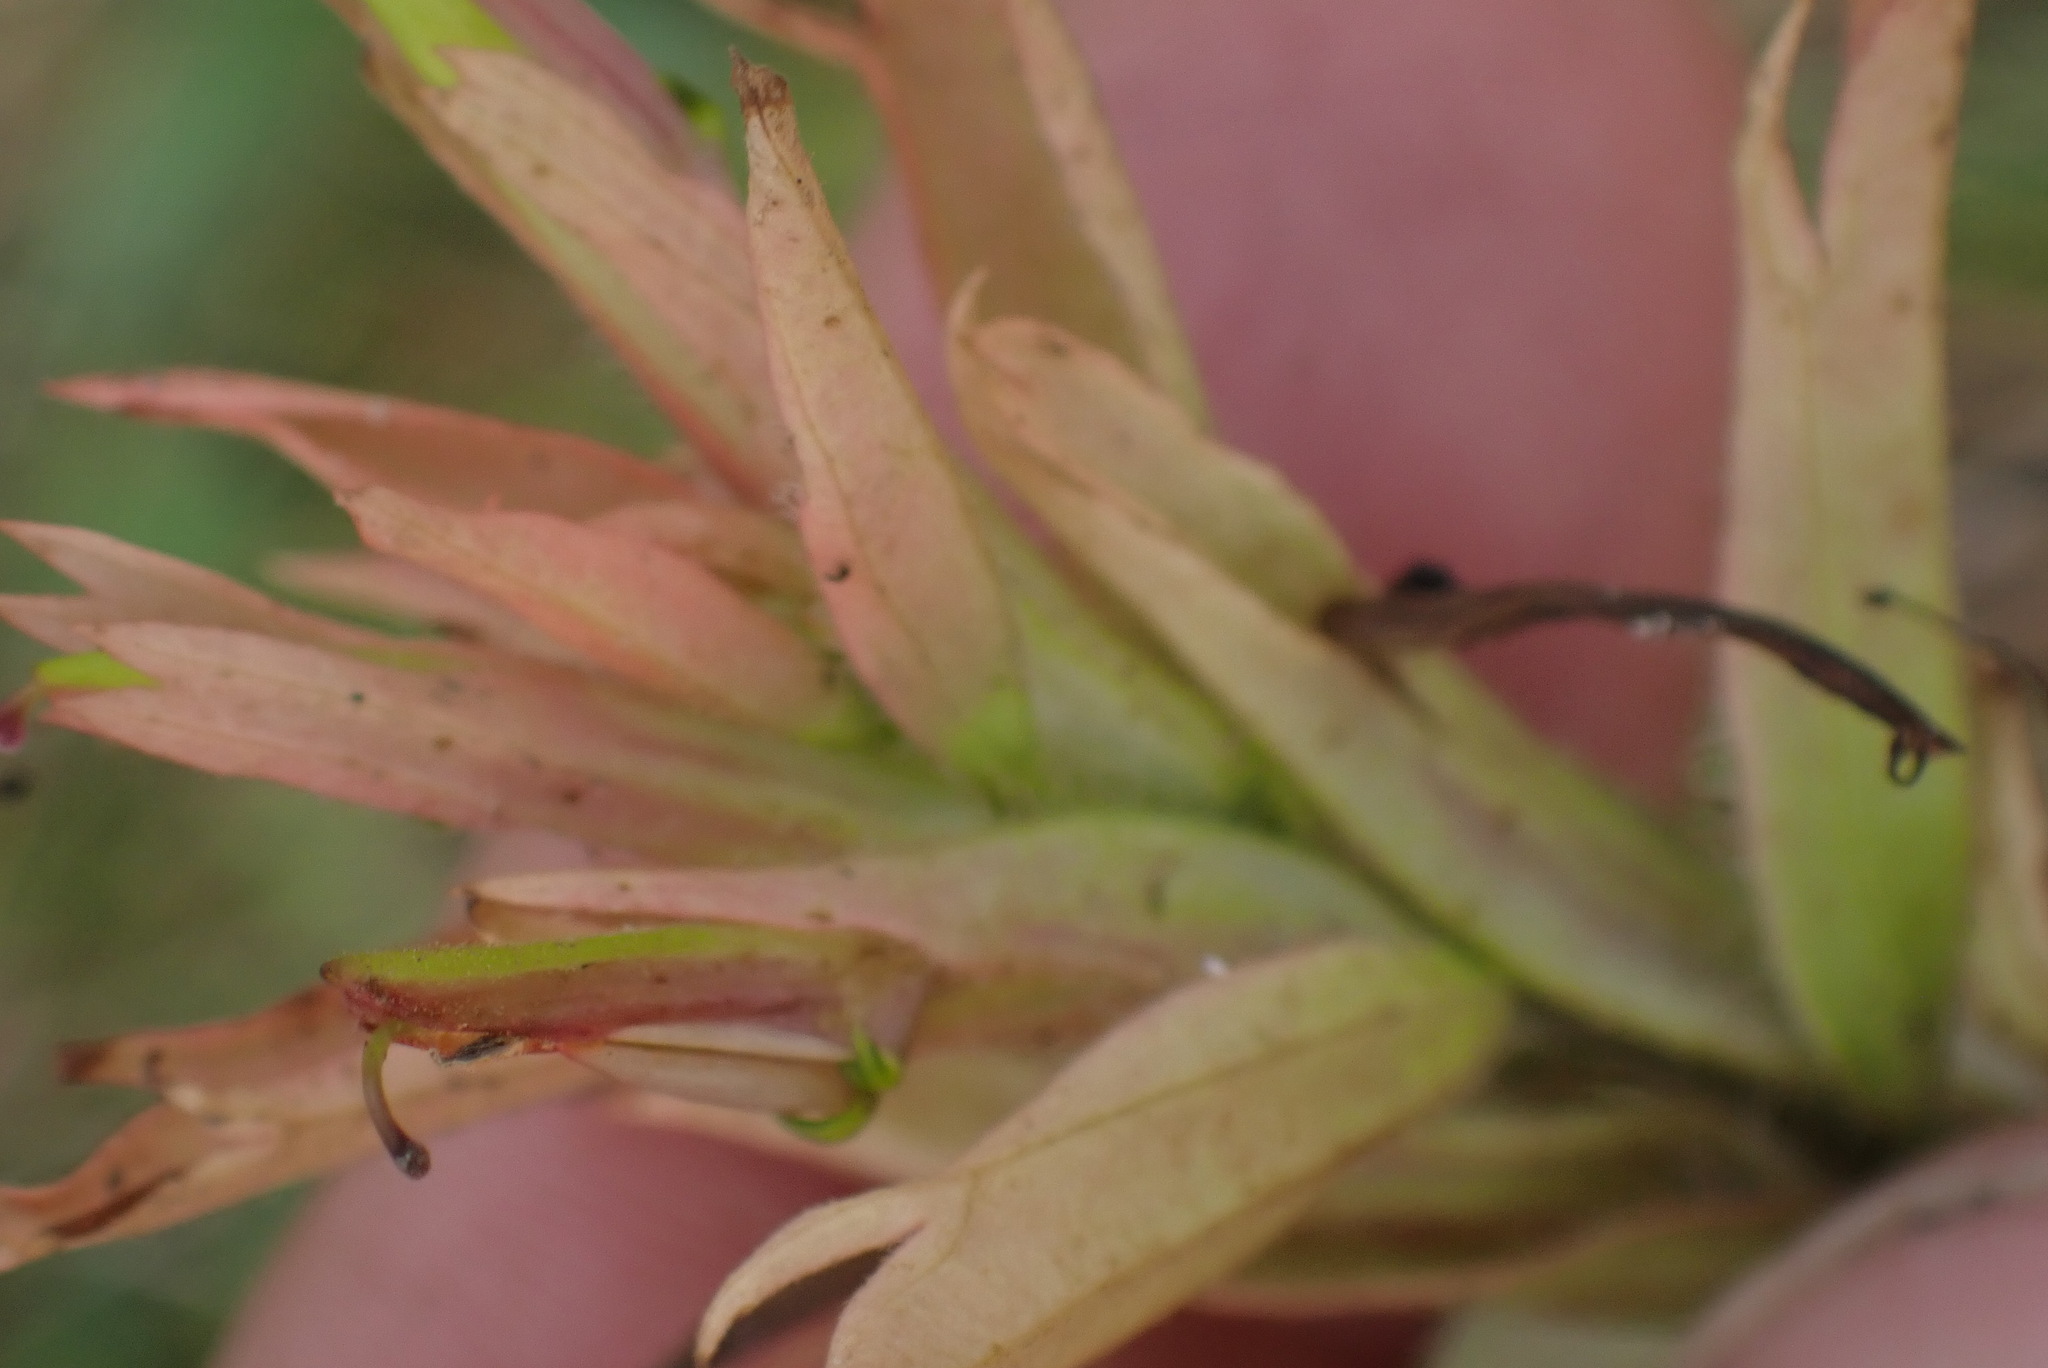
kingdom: Plantae
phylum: Tracheophyta
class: Magnoliopsida
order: Lamiales
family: Orobanchaceae
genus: Castilleja
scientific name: Castilleja miniata
